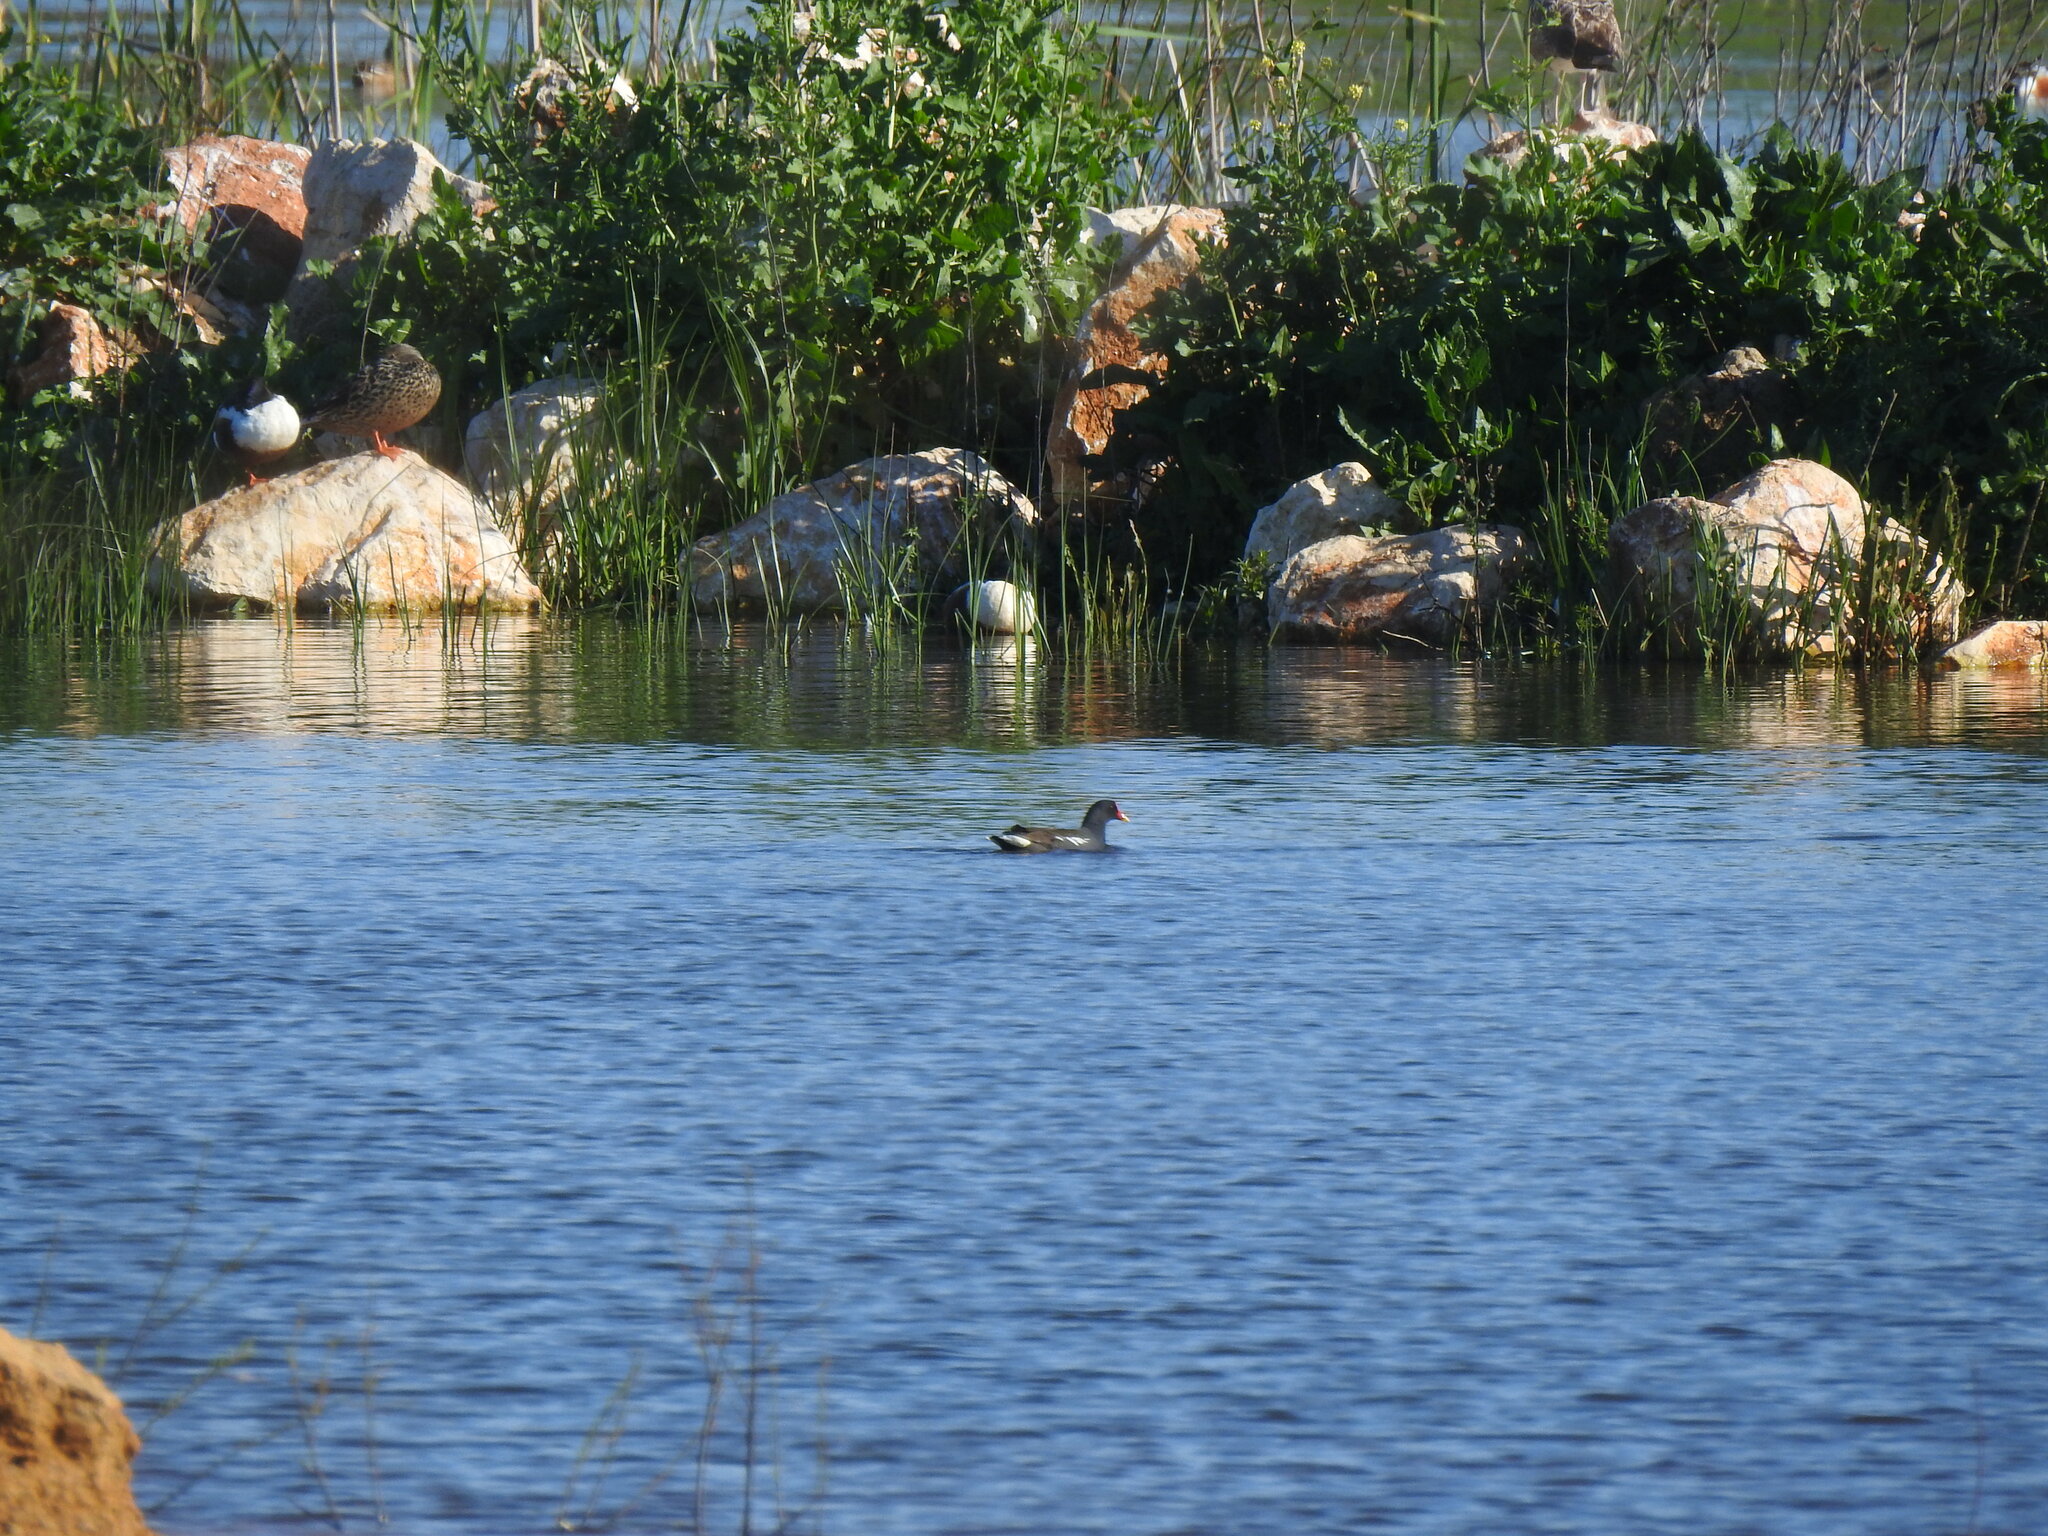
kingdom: Animalia
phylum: Chordata
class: Aves
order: Gruiformes
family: Rallidae
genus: Gallinula
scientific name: Gallinula chloropus
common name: Common moorhen
